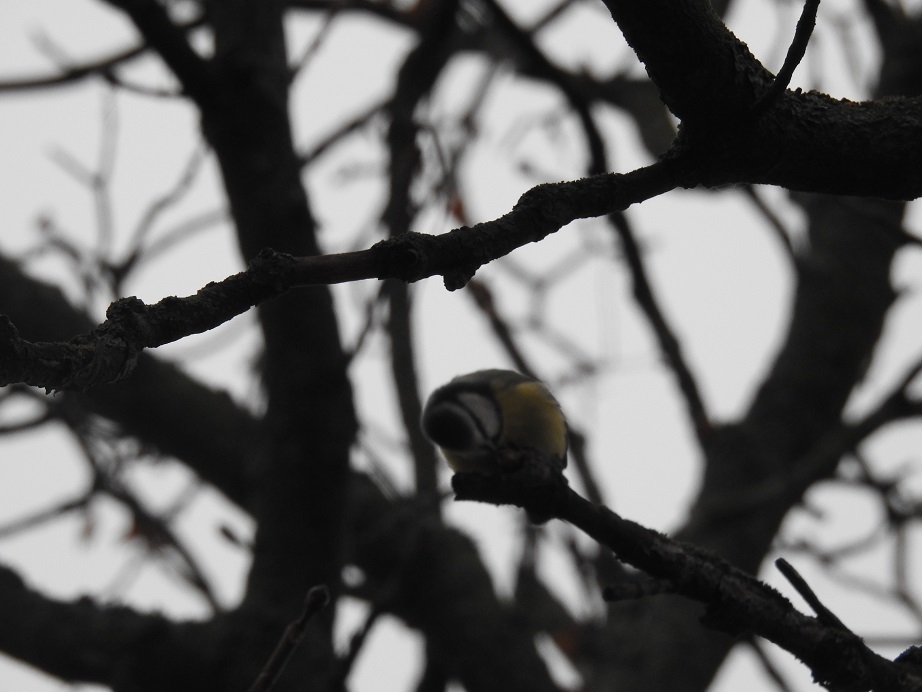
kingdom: Animalia
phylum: Chordata
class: Aves
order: Passeriformes
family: Paridae
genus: Cyanistes
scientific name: Cyanistes caeruleus
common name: Eurasian blue tit
